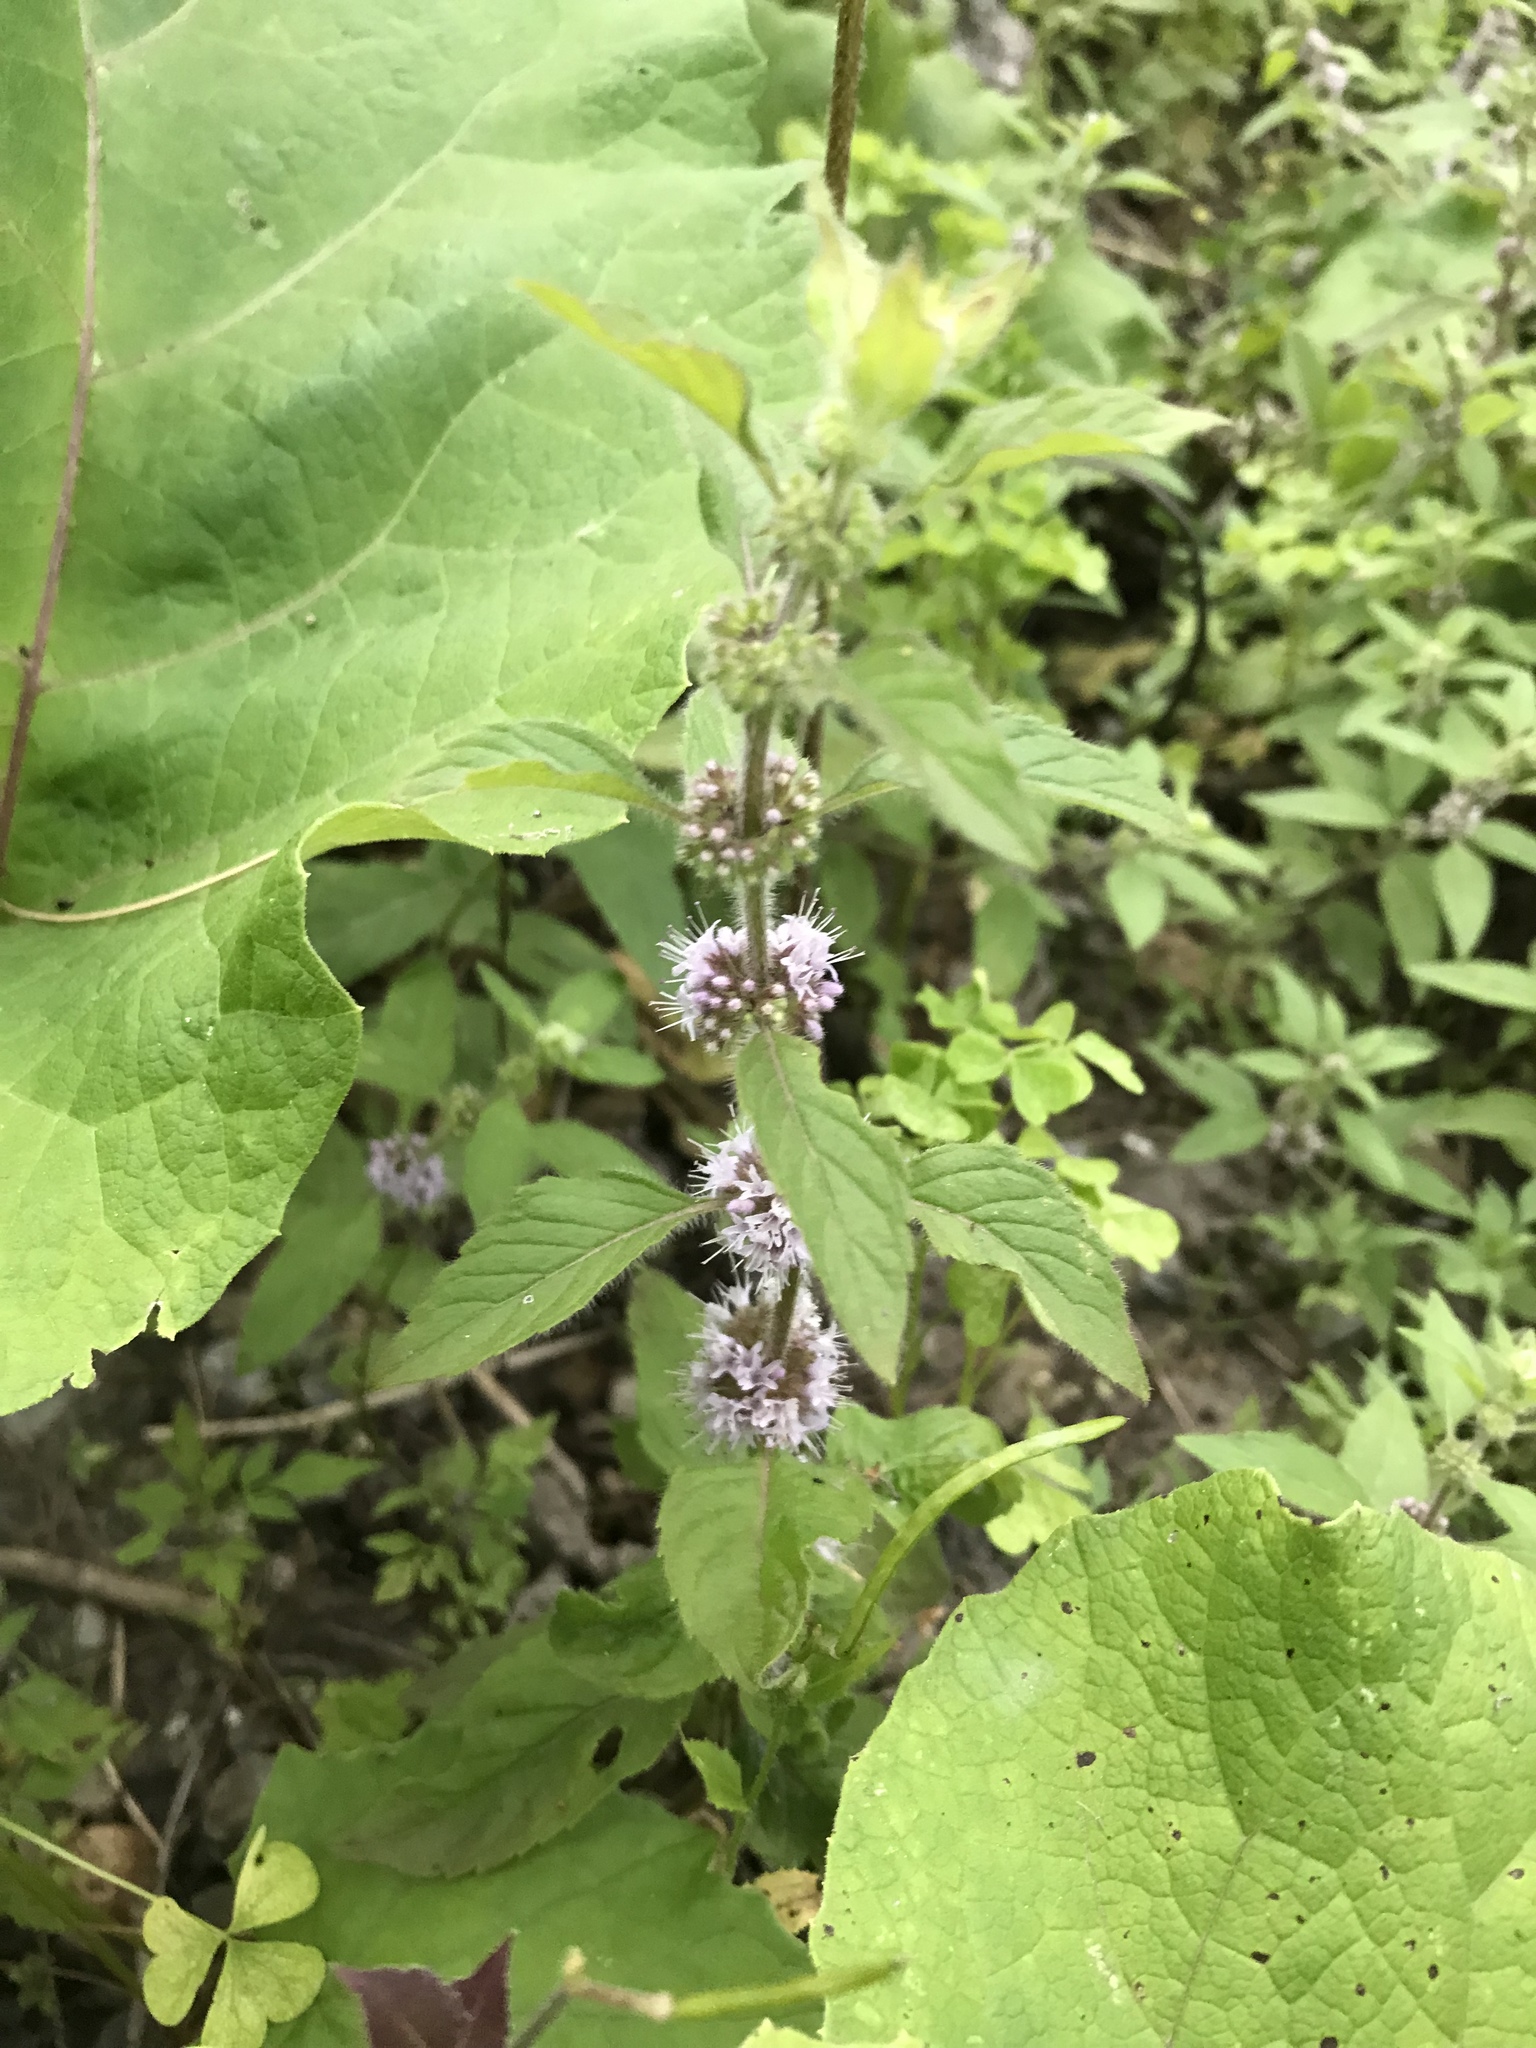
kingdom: Plantae
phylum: Tracheophyta
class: Magnoliopsida
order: Lamiales
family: Lamiaceae
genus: Mentha
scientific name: Mentha canadensis
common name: American corn mint
